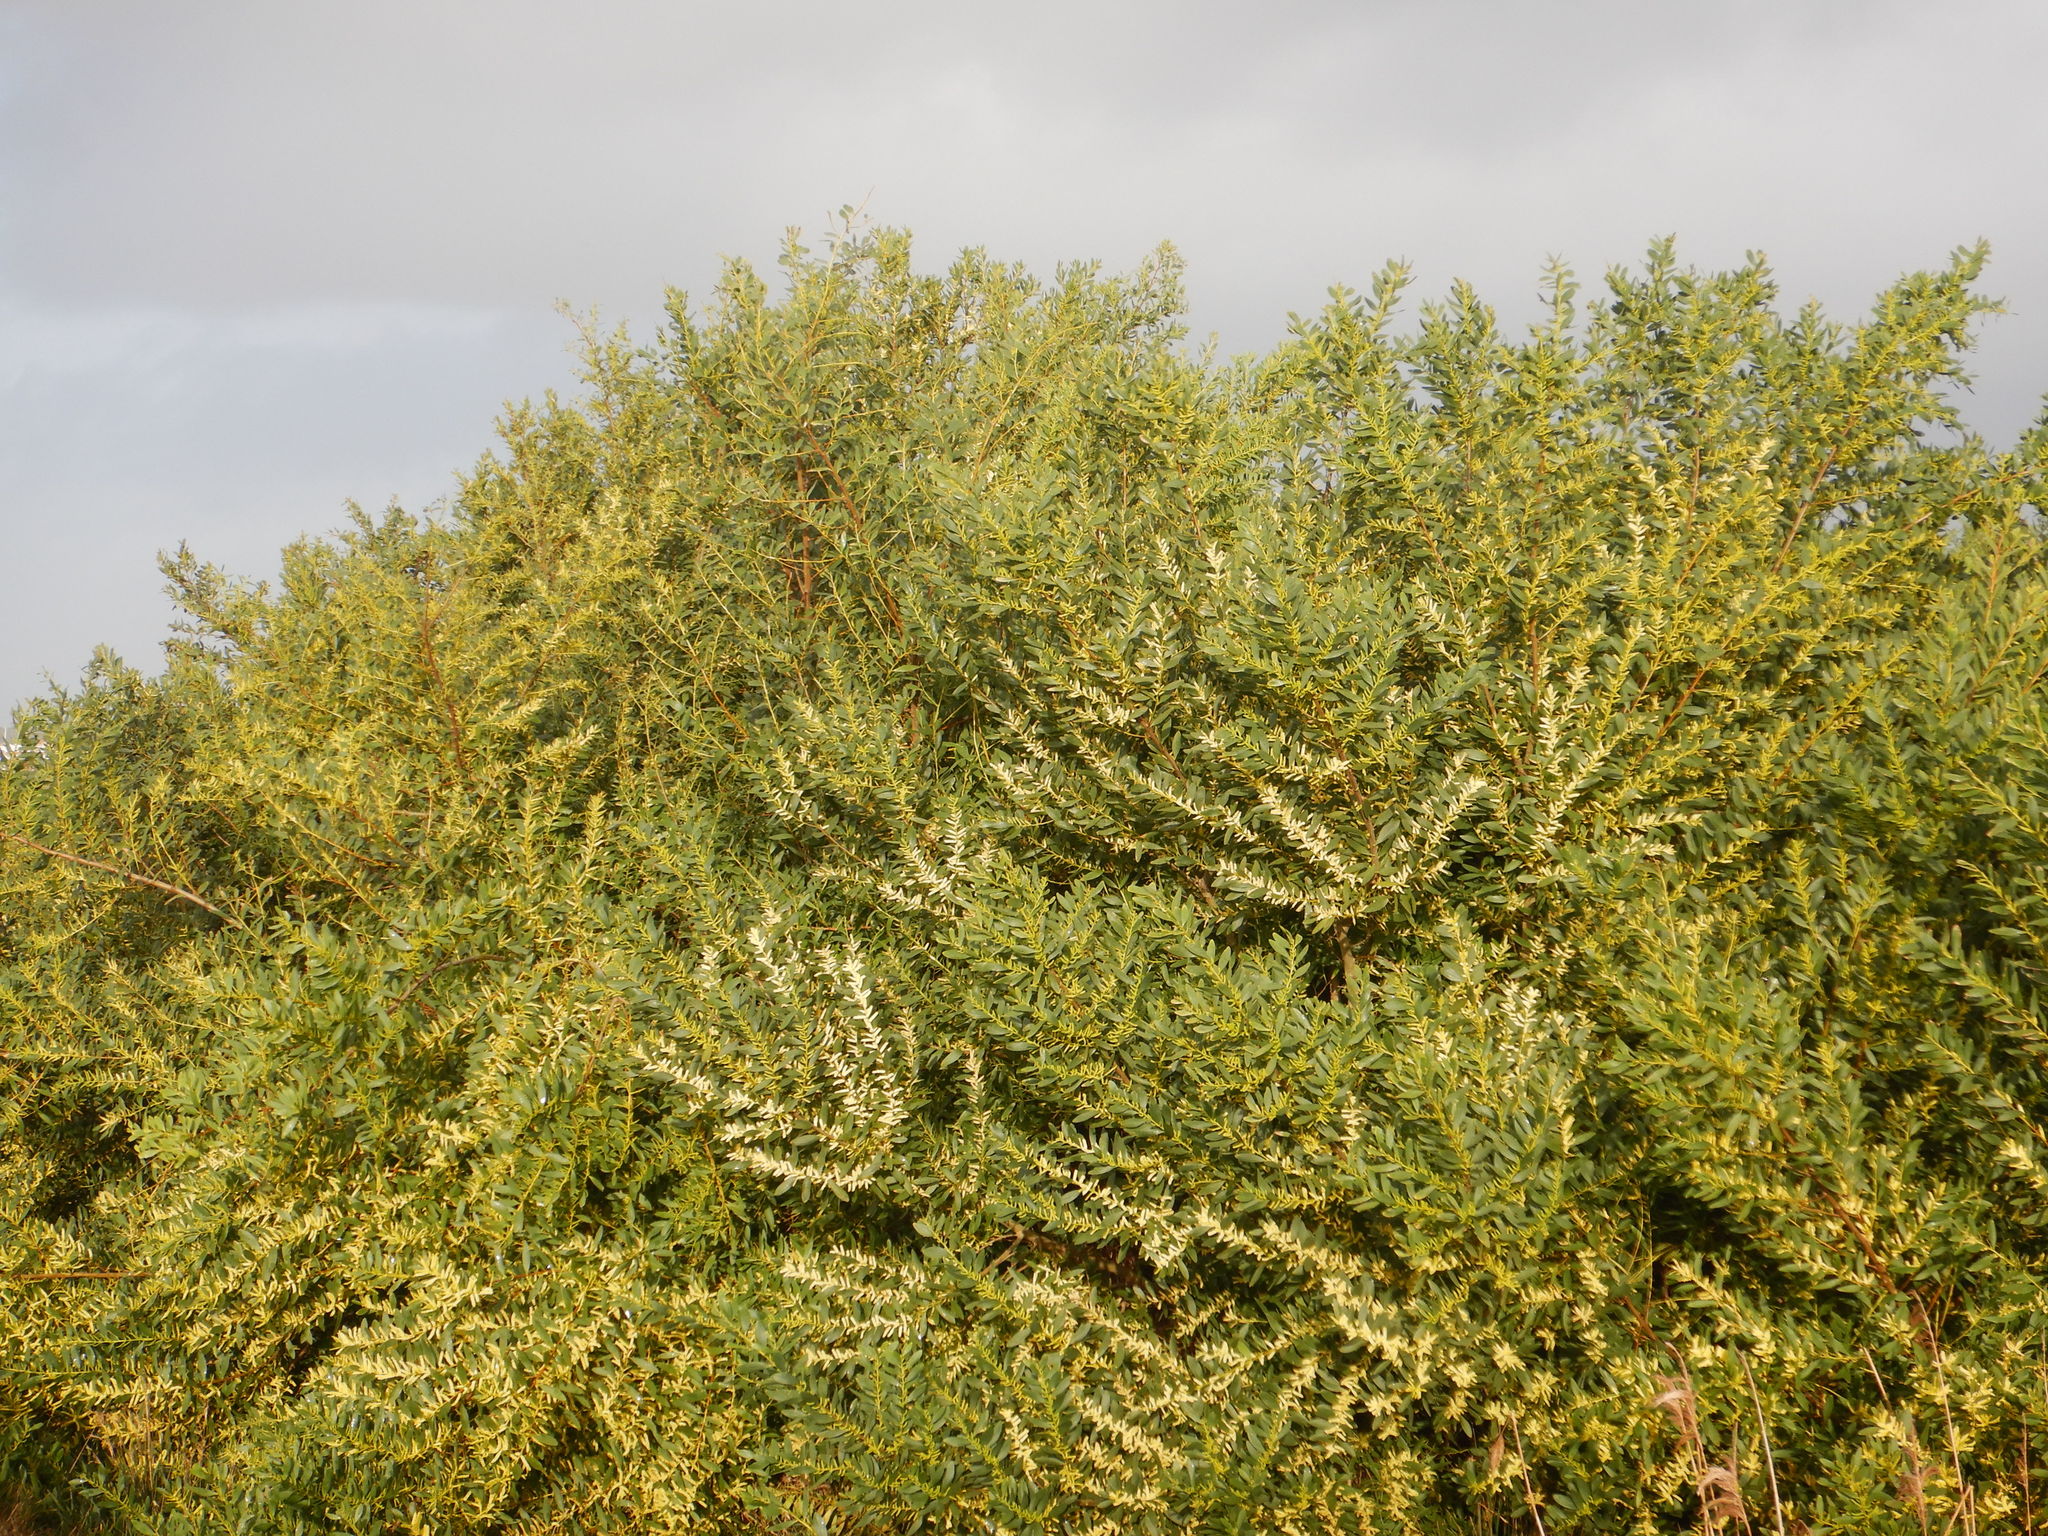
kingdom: Plantae
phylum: Tracheophyta
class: Magnoliopsida
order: Fabales
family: Fabaceae
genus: Acacia
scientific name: Acacia longifolia
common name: Sydney golden wattle
